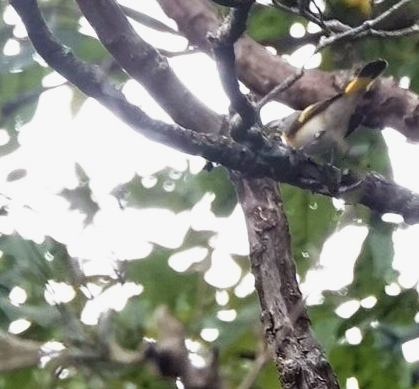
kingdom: Animalia
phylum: Chordata
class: Aves
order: Passeriformes
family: Parulidae
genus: Setophaga
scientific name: Setophaga ruticilla
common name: American redstart
